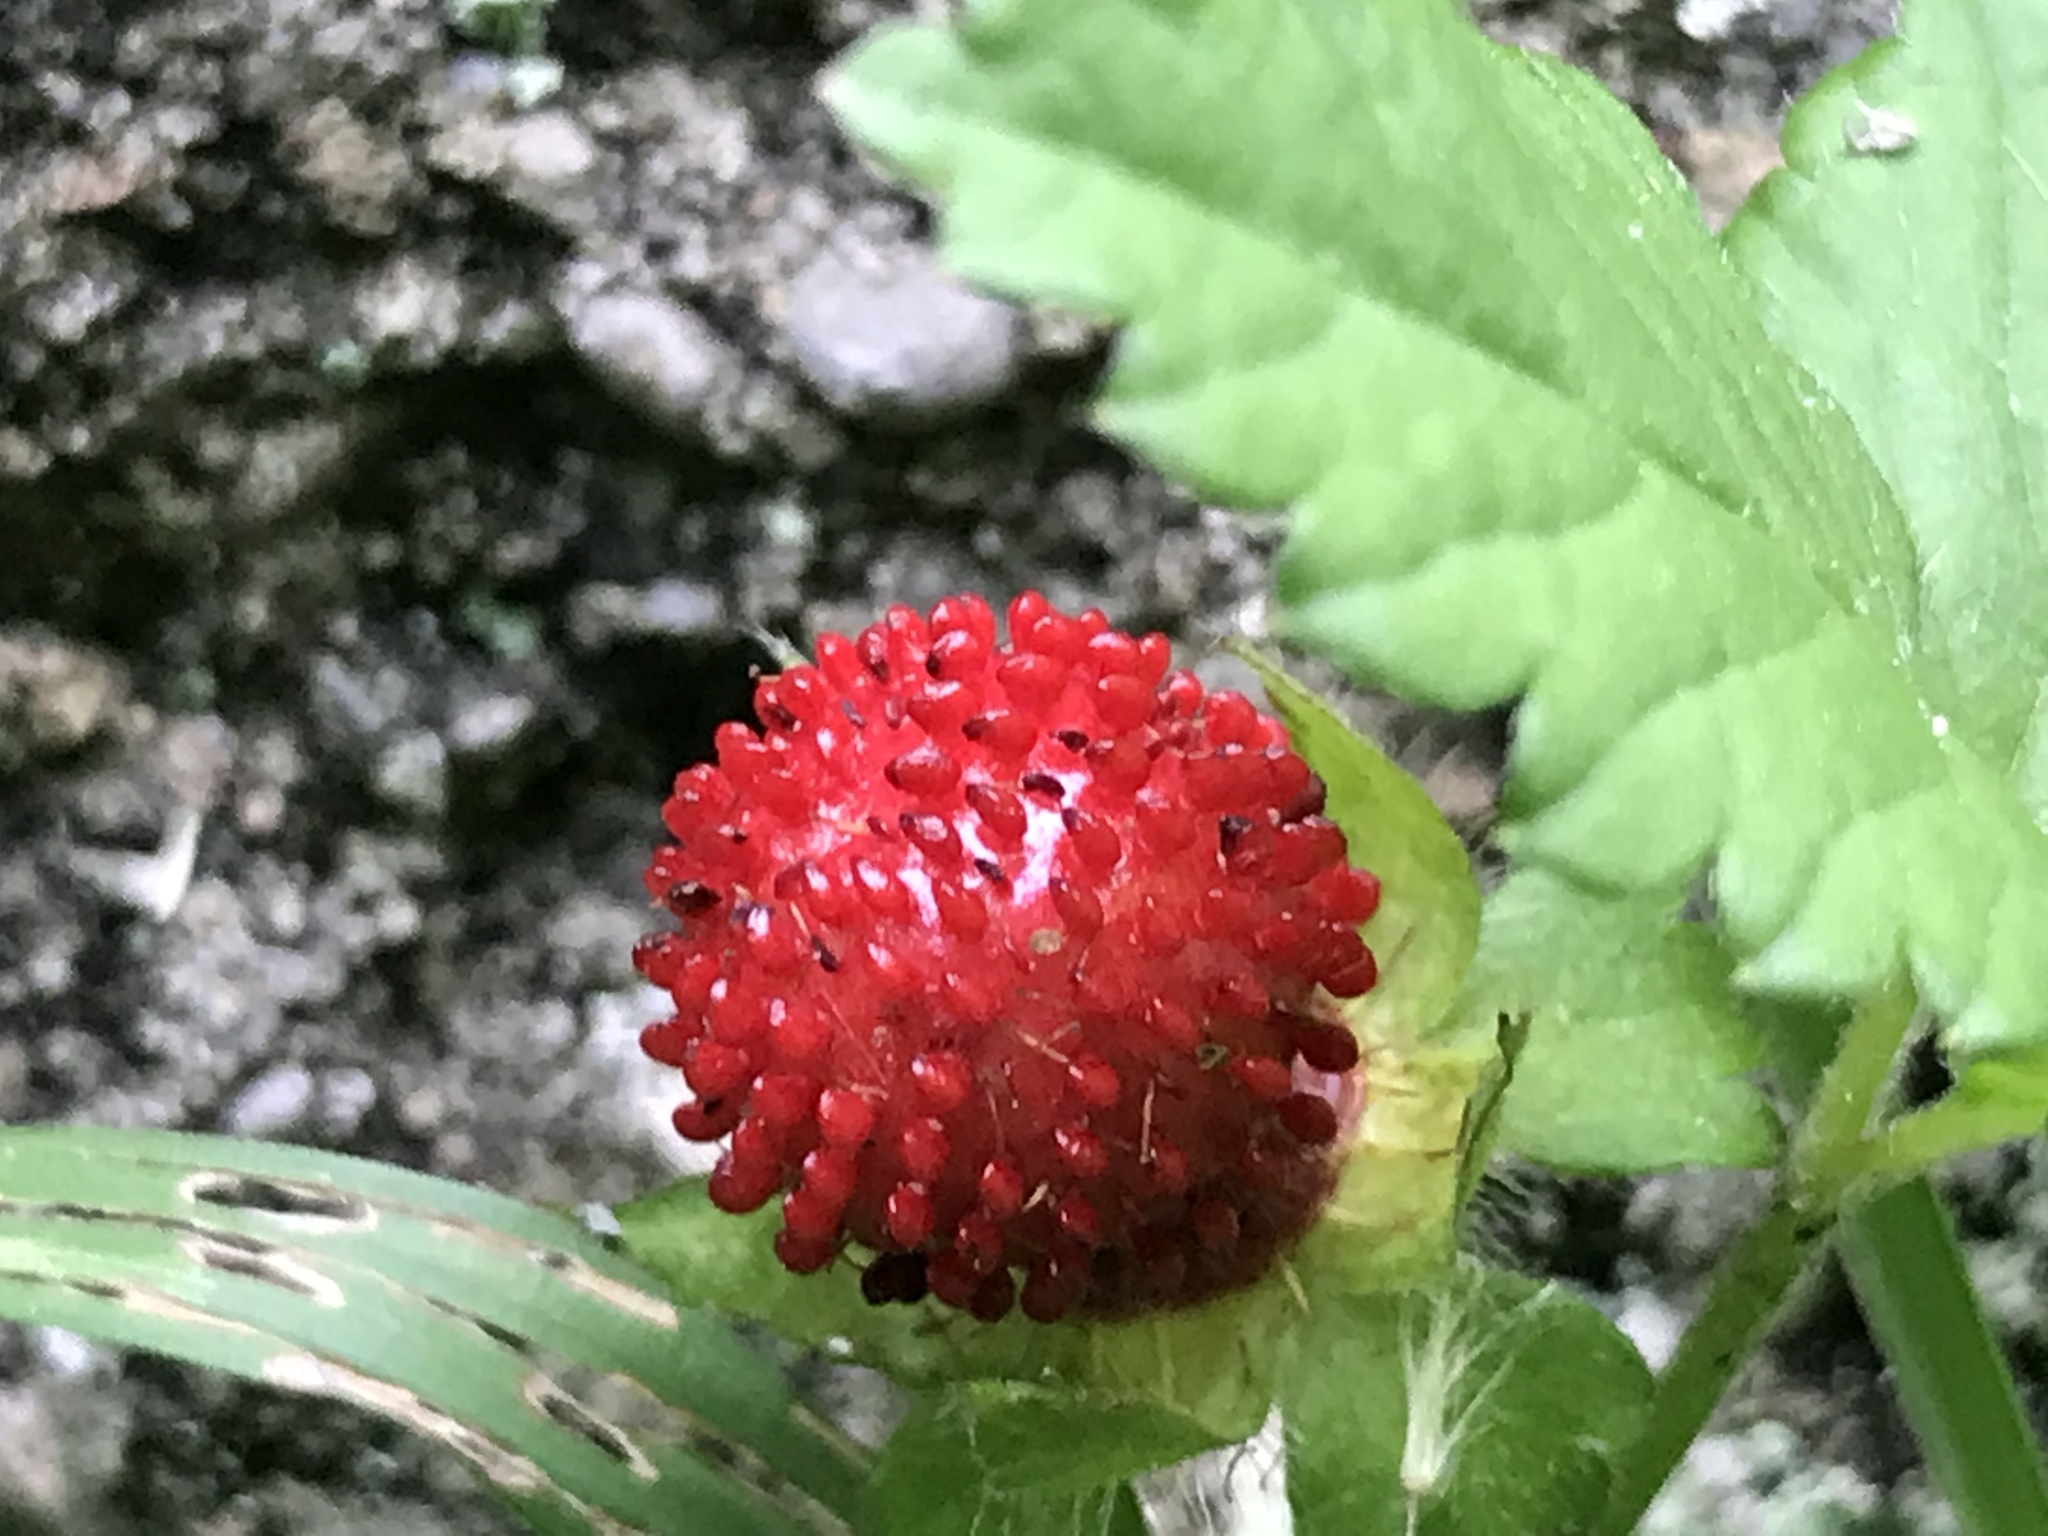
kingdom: Plantae
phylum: Tracheophyta
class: Magnoliopsida
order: Rosales
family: Rosaceae
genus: Potentilla
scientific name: Potentilla indica
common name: Yellow-flowered strawberry
